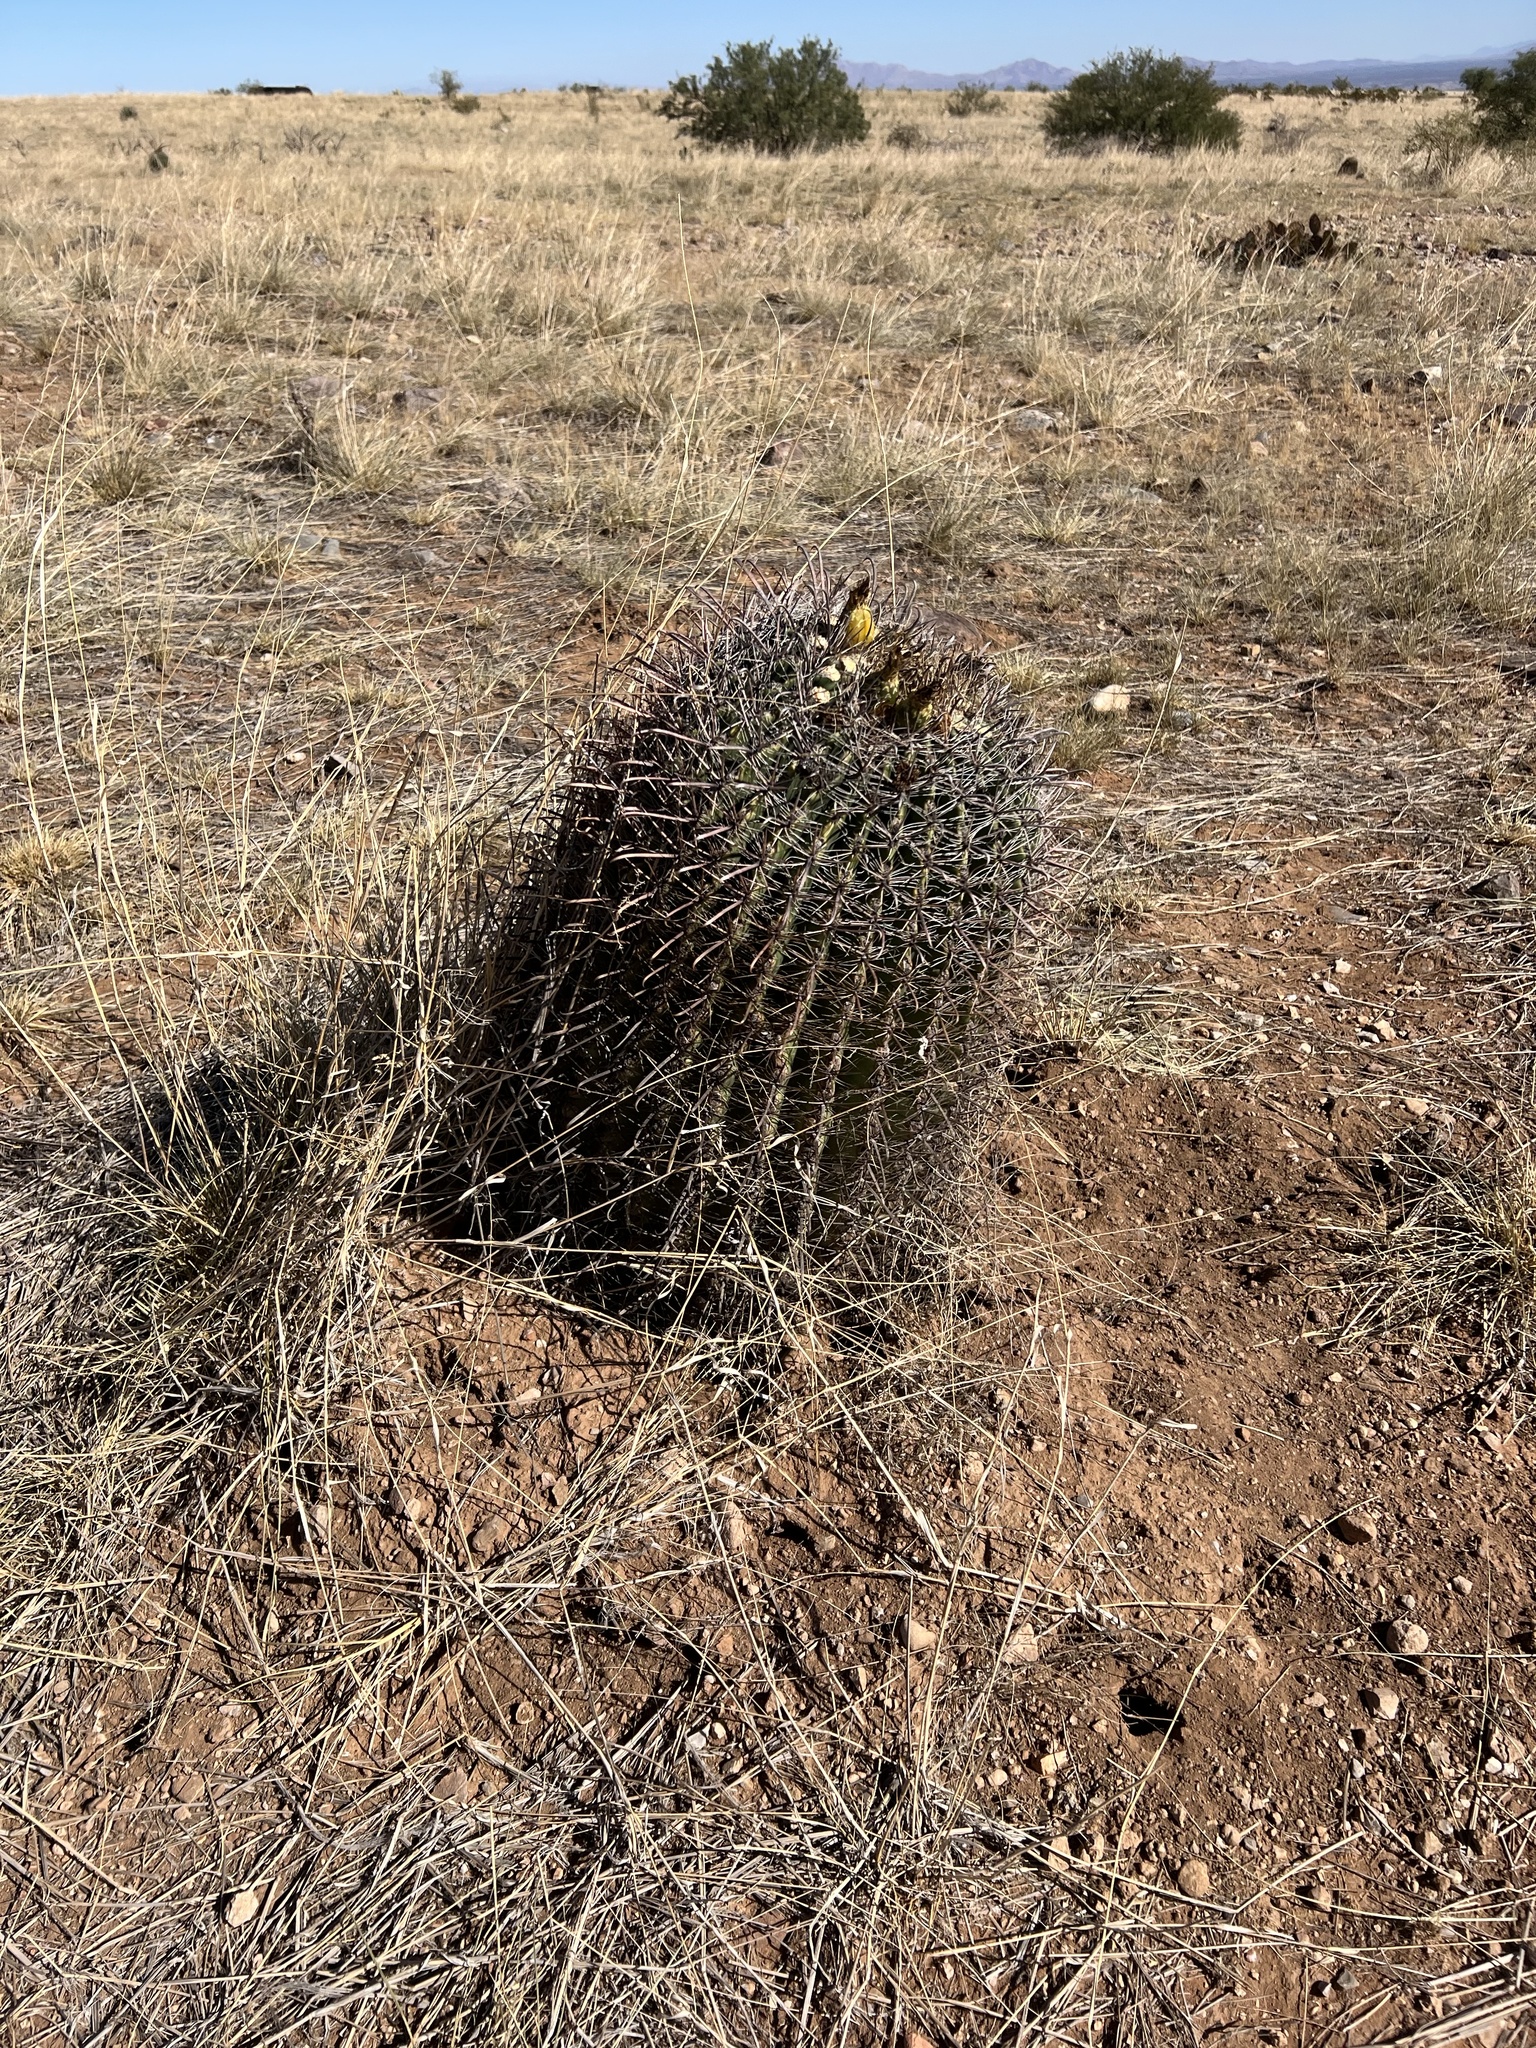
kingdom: Plantae
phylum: Tracheophyta
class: Magnoliopsida
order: Caryophyllales
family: Cactaceae
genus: Ferocactus
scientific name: Ferocactus wislizeni
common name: Candy barrel cactus
